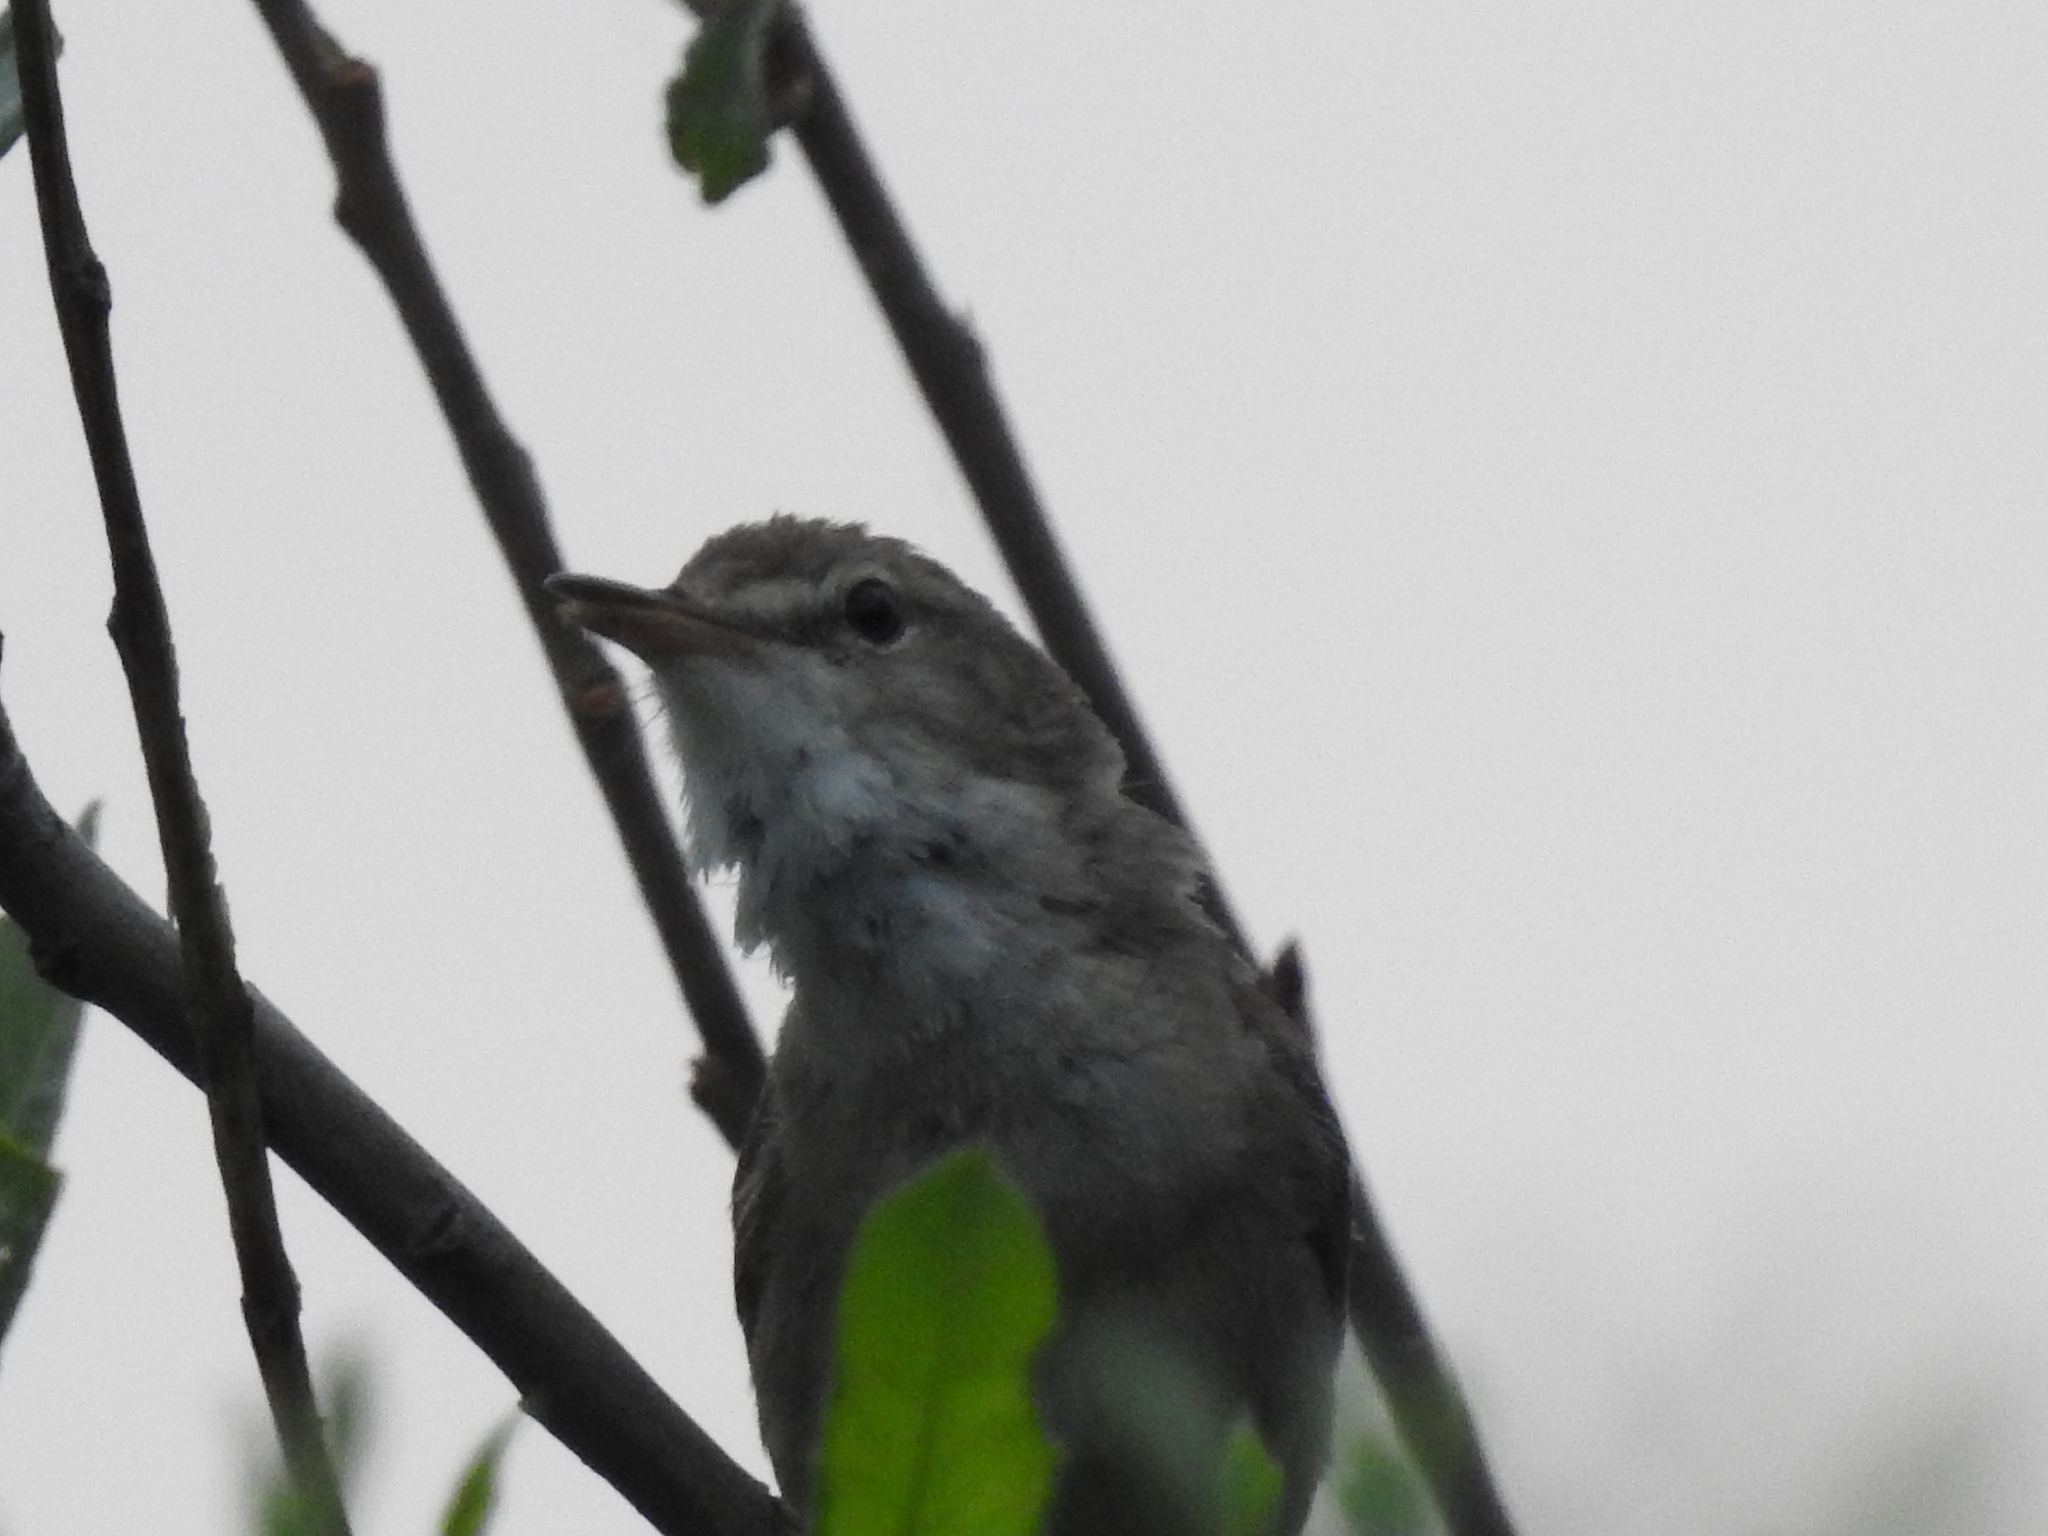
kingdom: Animalia
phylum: Chordata
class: Aves
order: Passeriformes
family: Acrocephalidae
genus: Acrocephalus
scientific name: Acrocephalus dumetorum
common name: Blyth's reed warbler
